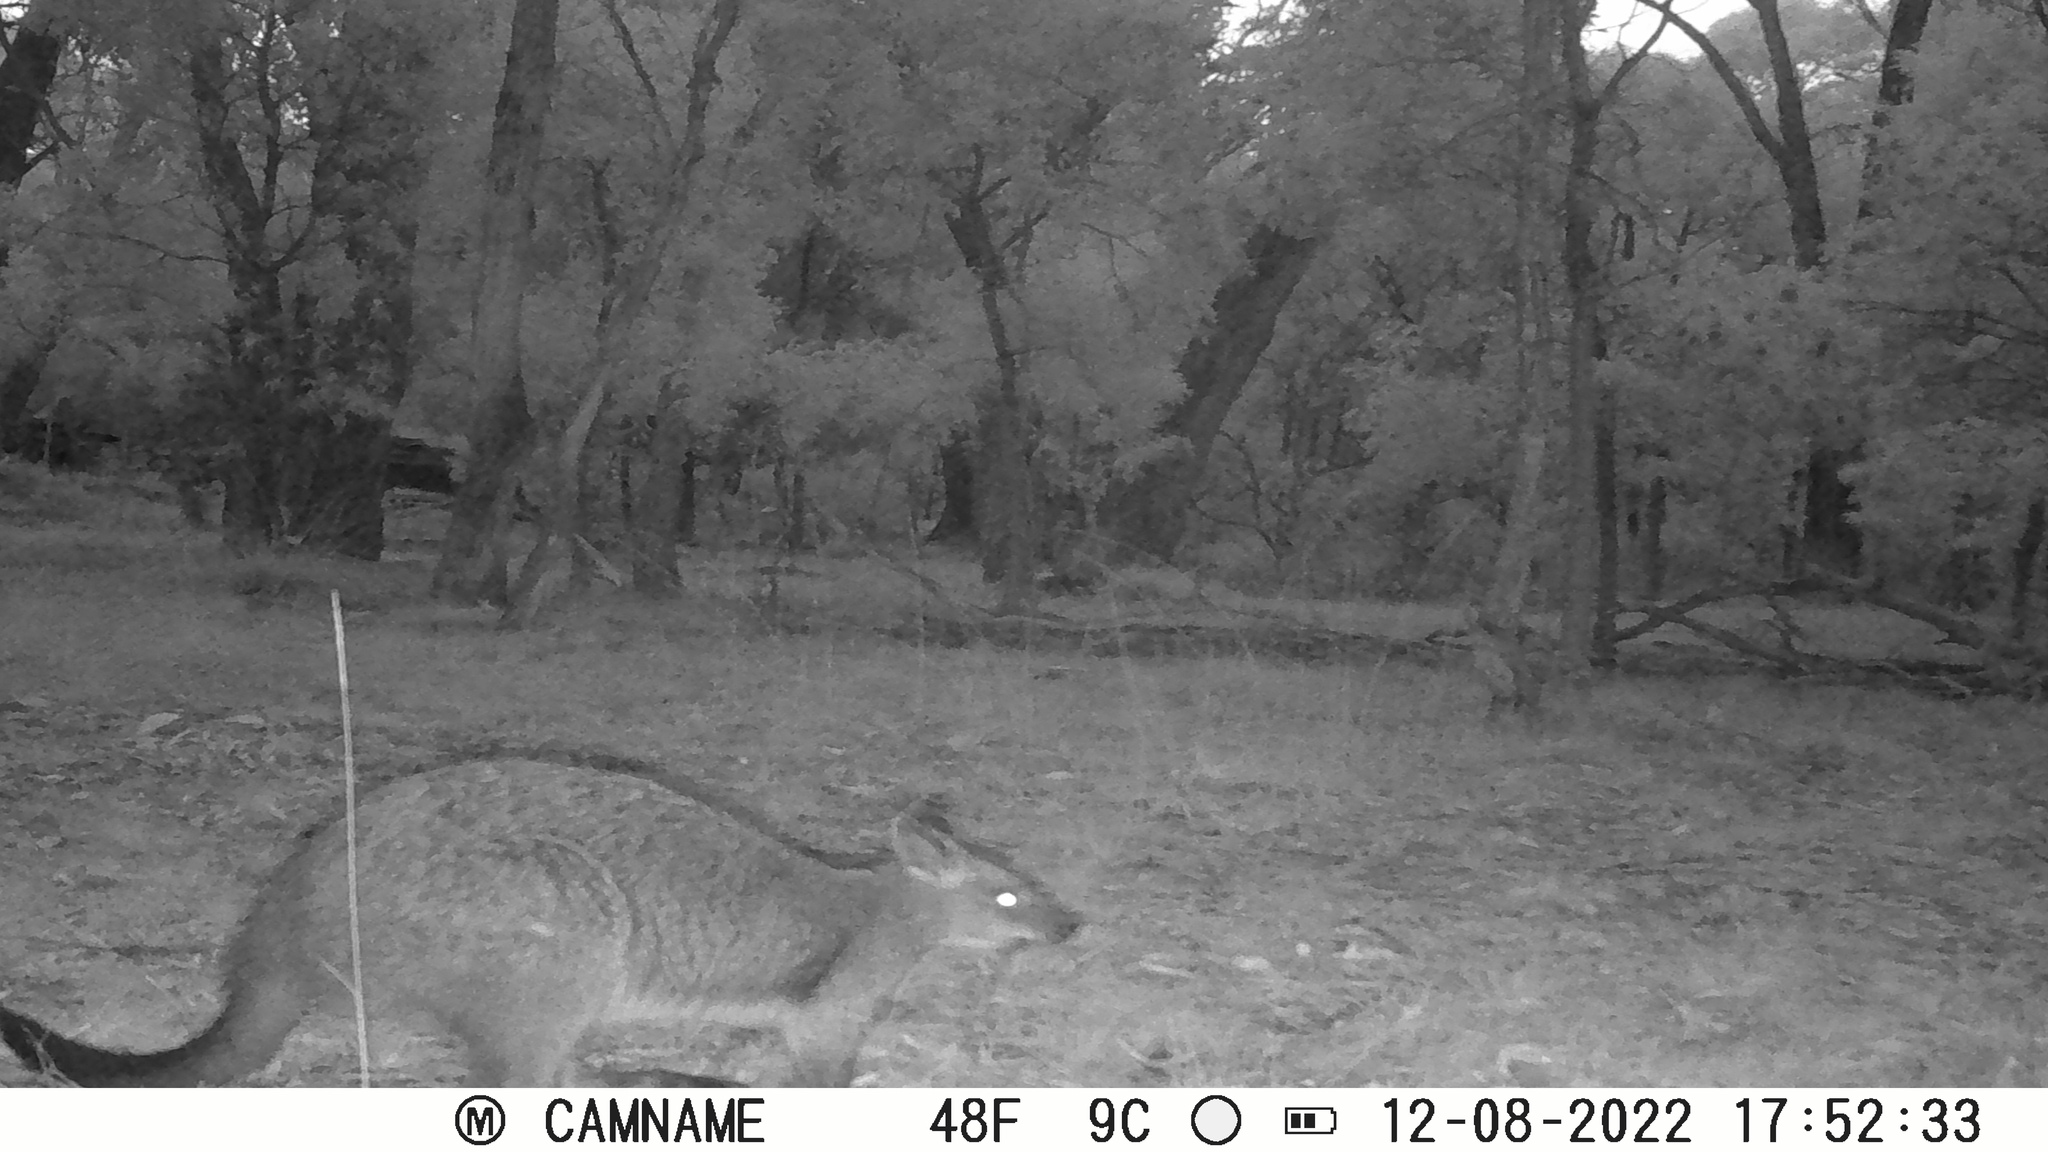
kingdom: Animalia
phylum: Chordata
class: Mammalia
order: Diprotodontia
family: Macropodidae
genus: Wallabia
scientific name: Wallabia bicolor
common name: Swamp wallaby
